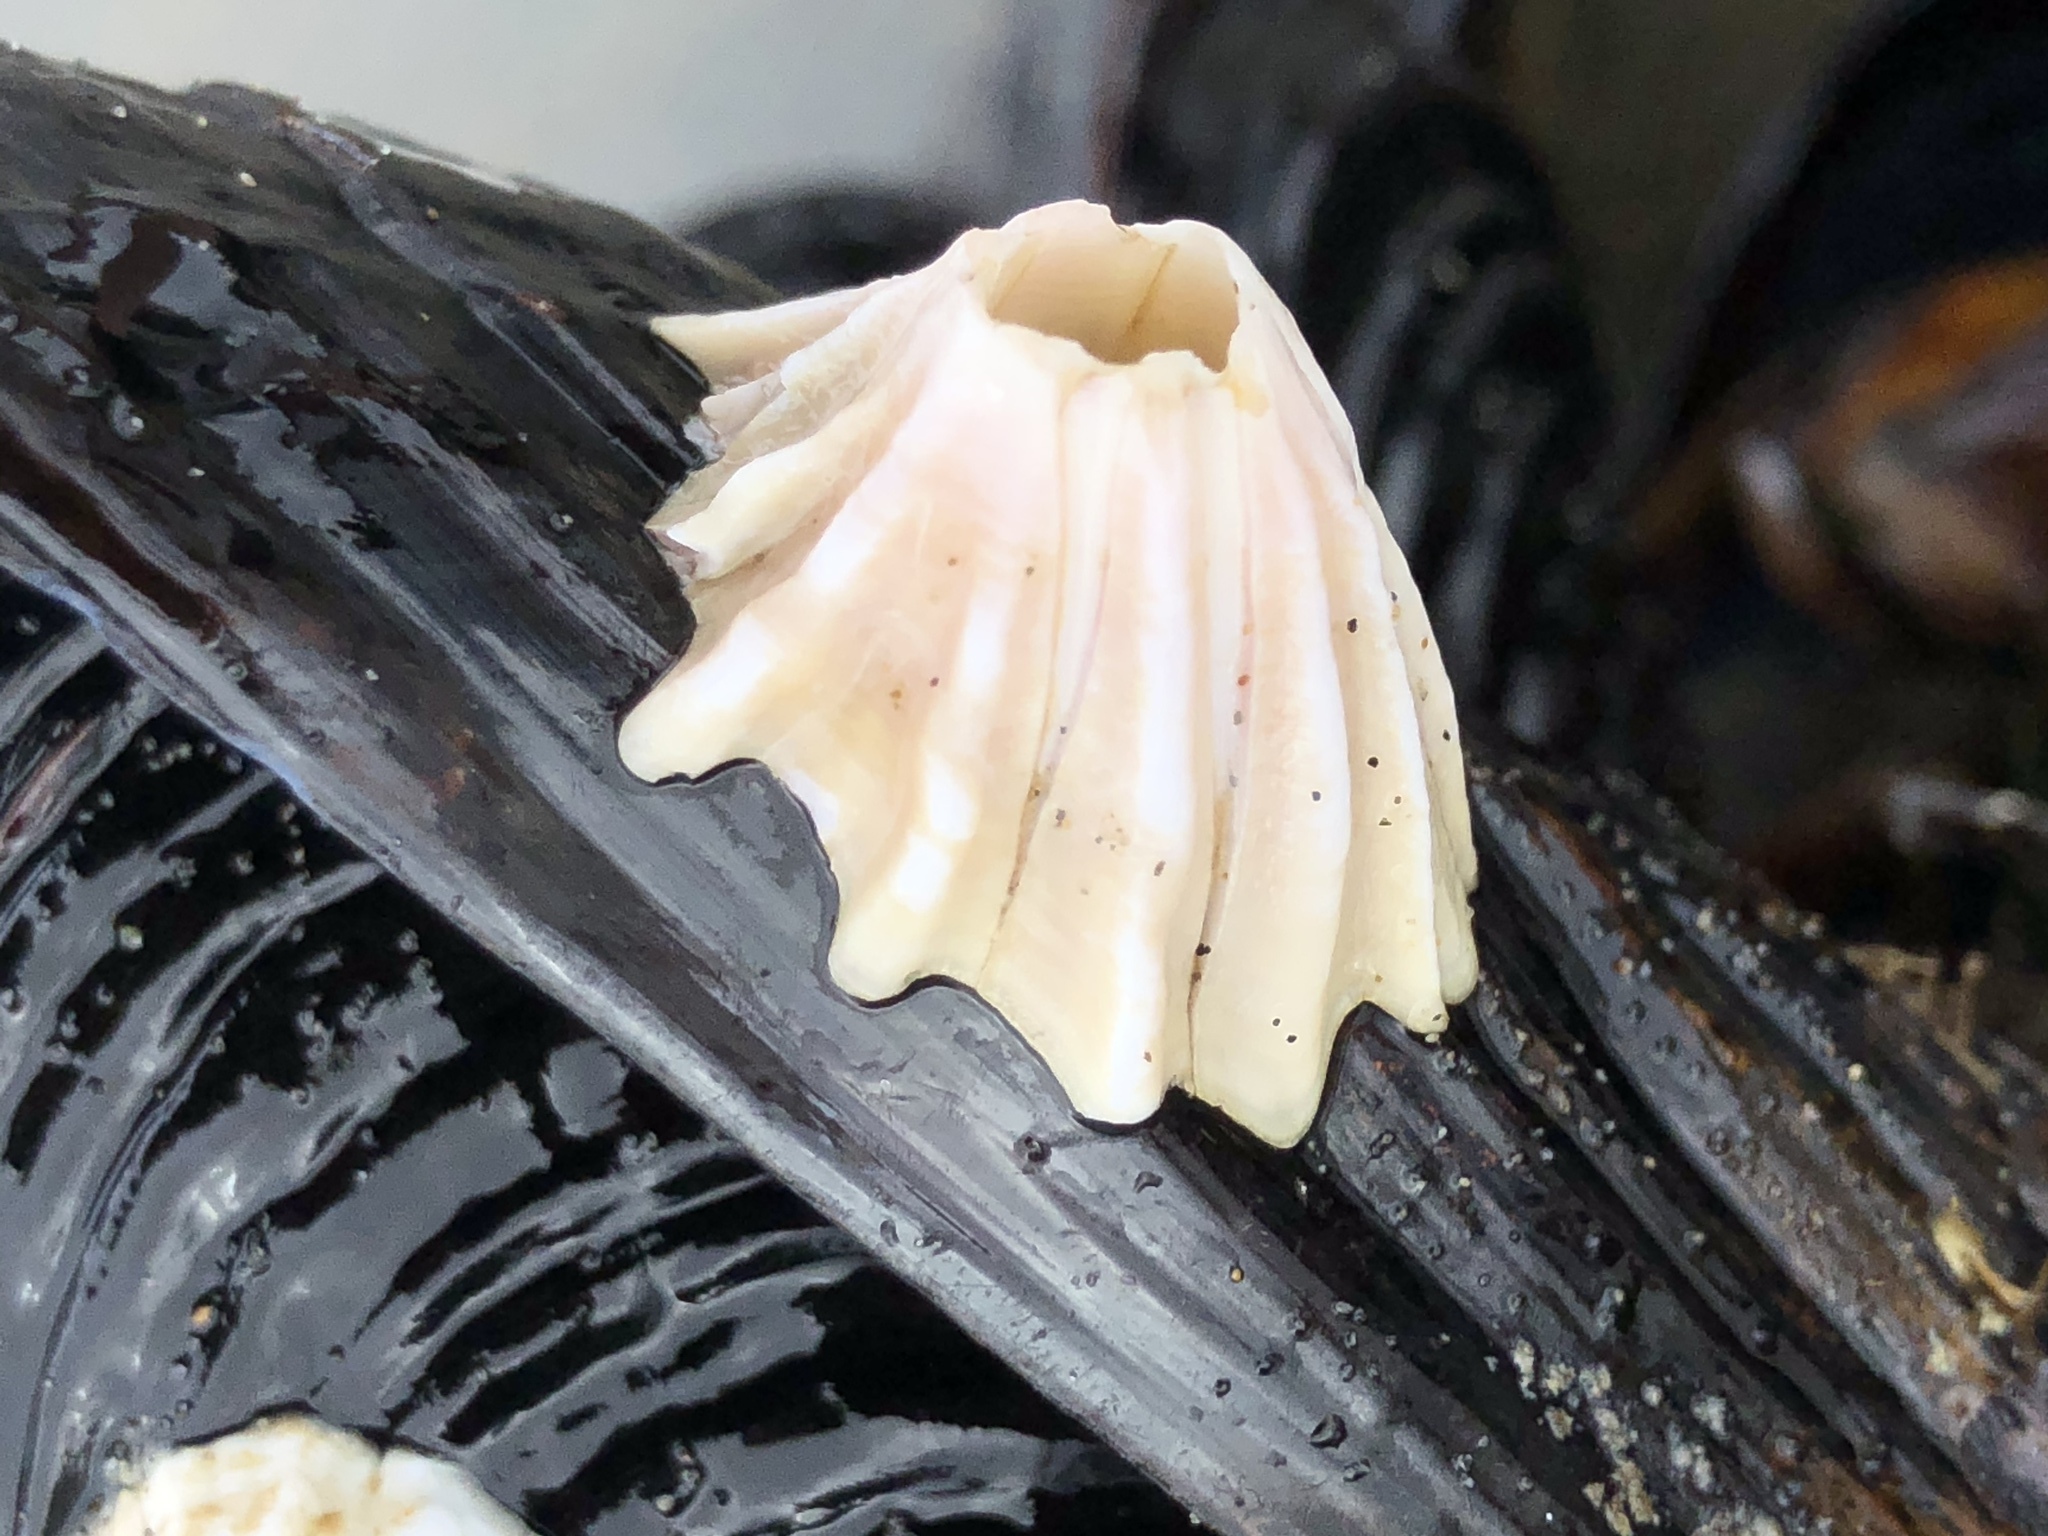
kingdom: Animalia
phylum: Arthropoda
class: Maxillopoda
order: Sessilia
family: Balanidae
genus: Menesiniella
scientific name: Menesiniella aquila
